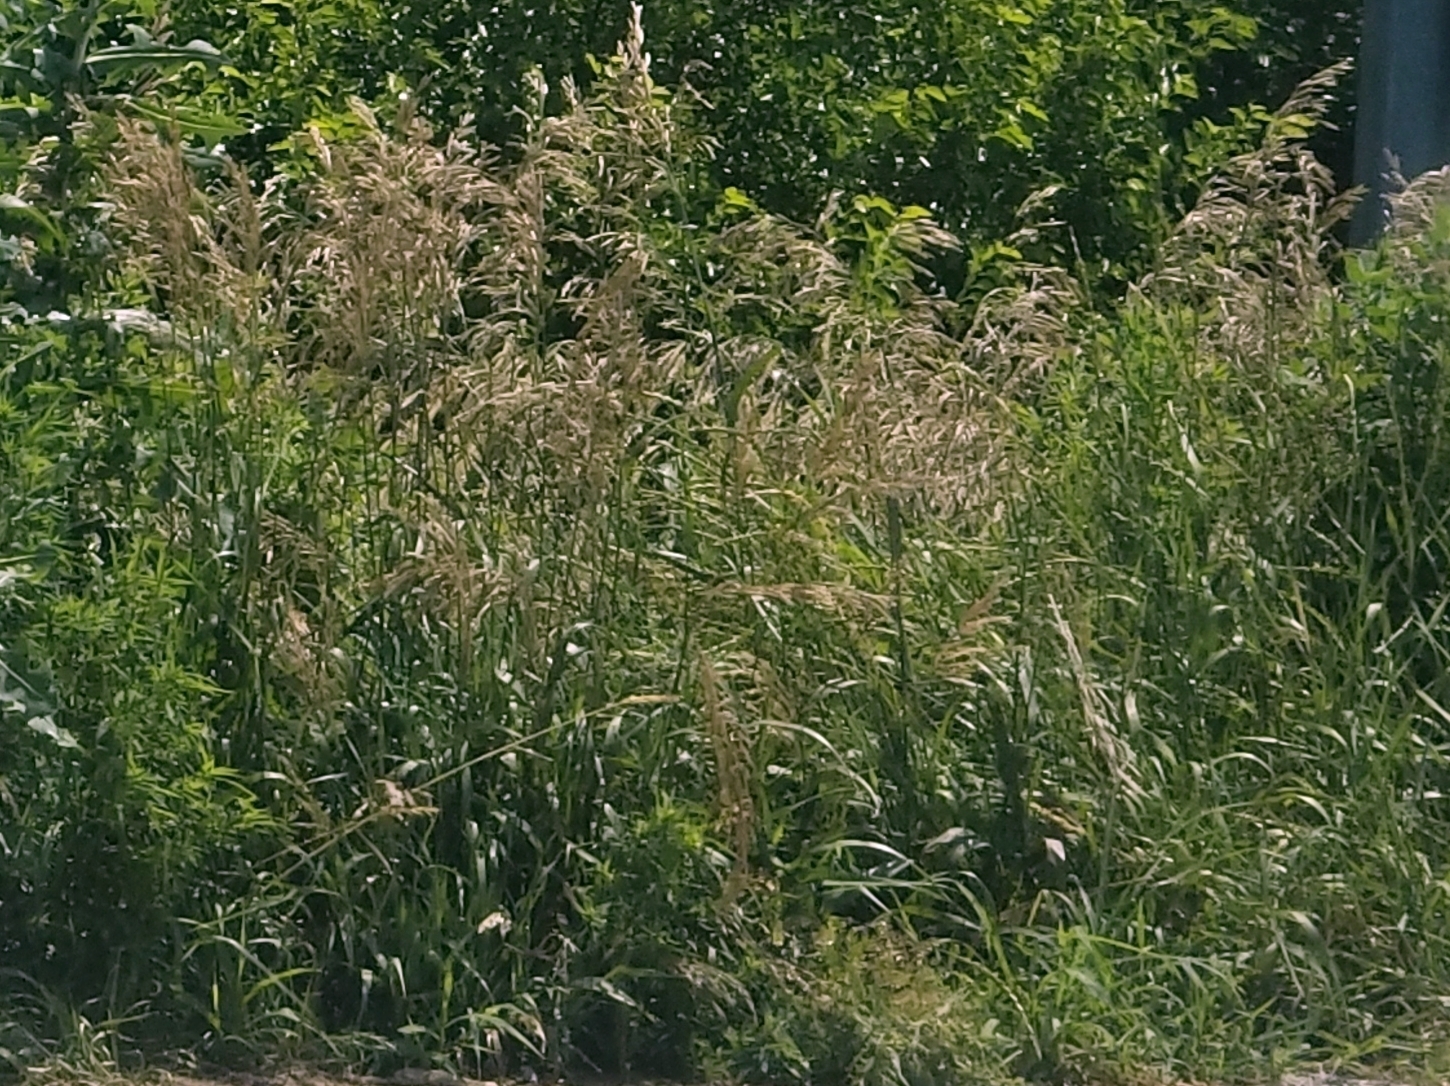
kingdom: Plantae
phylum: Tracheophyta
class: Liliopsida
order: Poales
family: Poaceae
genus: Bromus
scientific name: Bromus inermis
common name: Smooth brome
